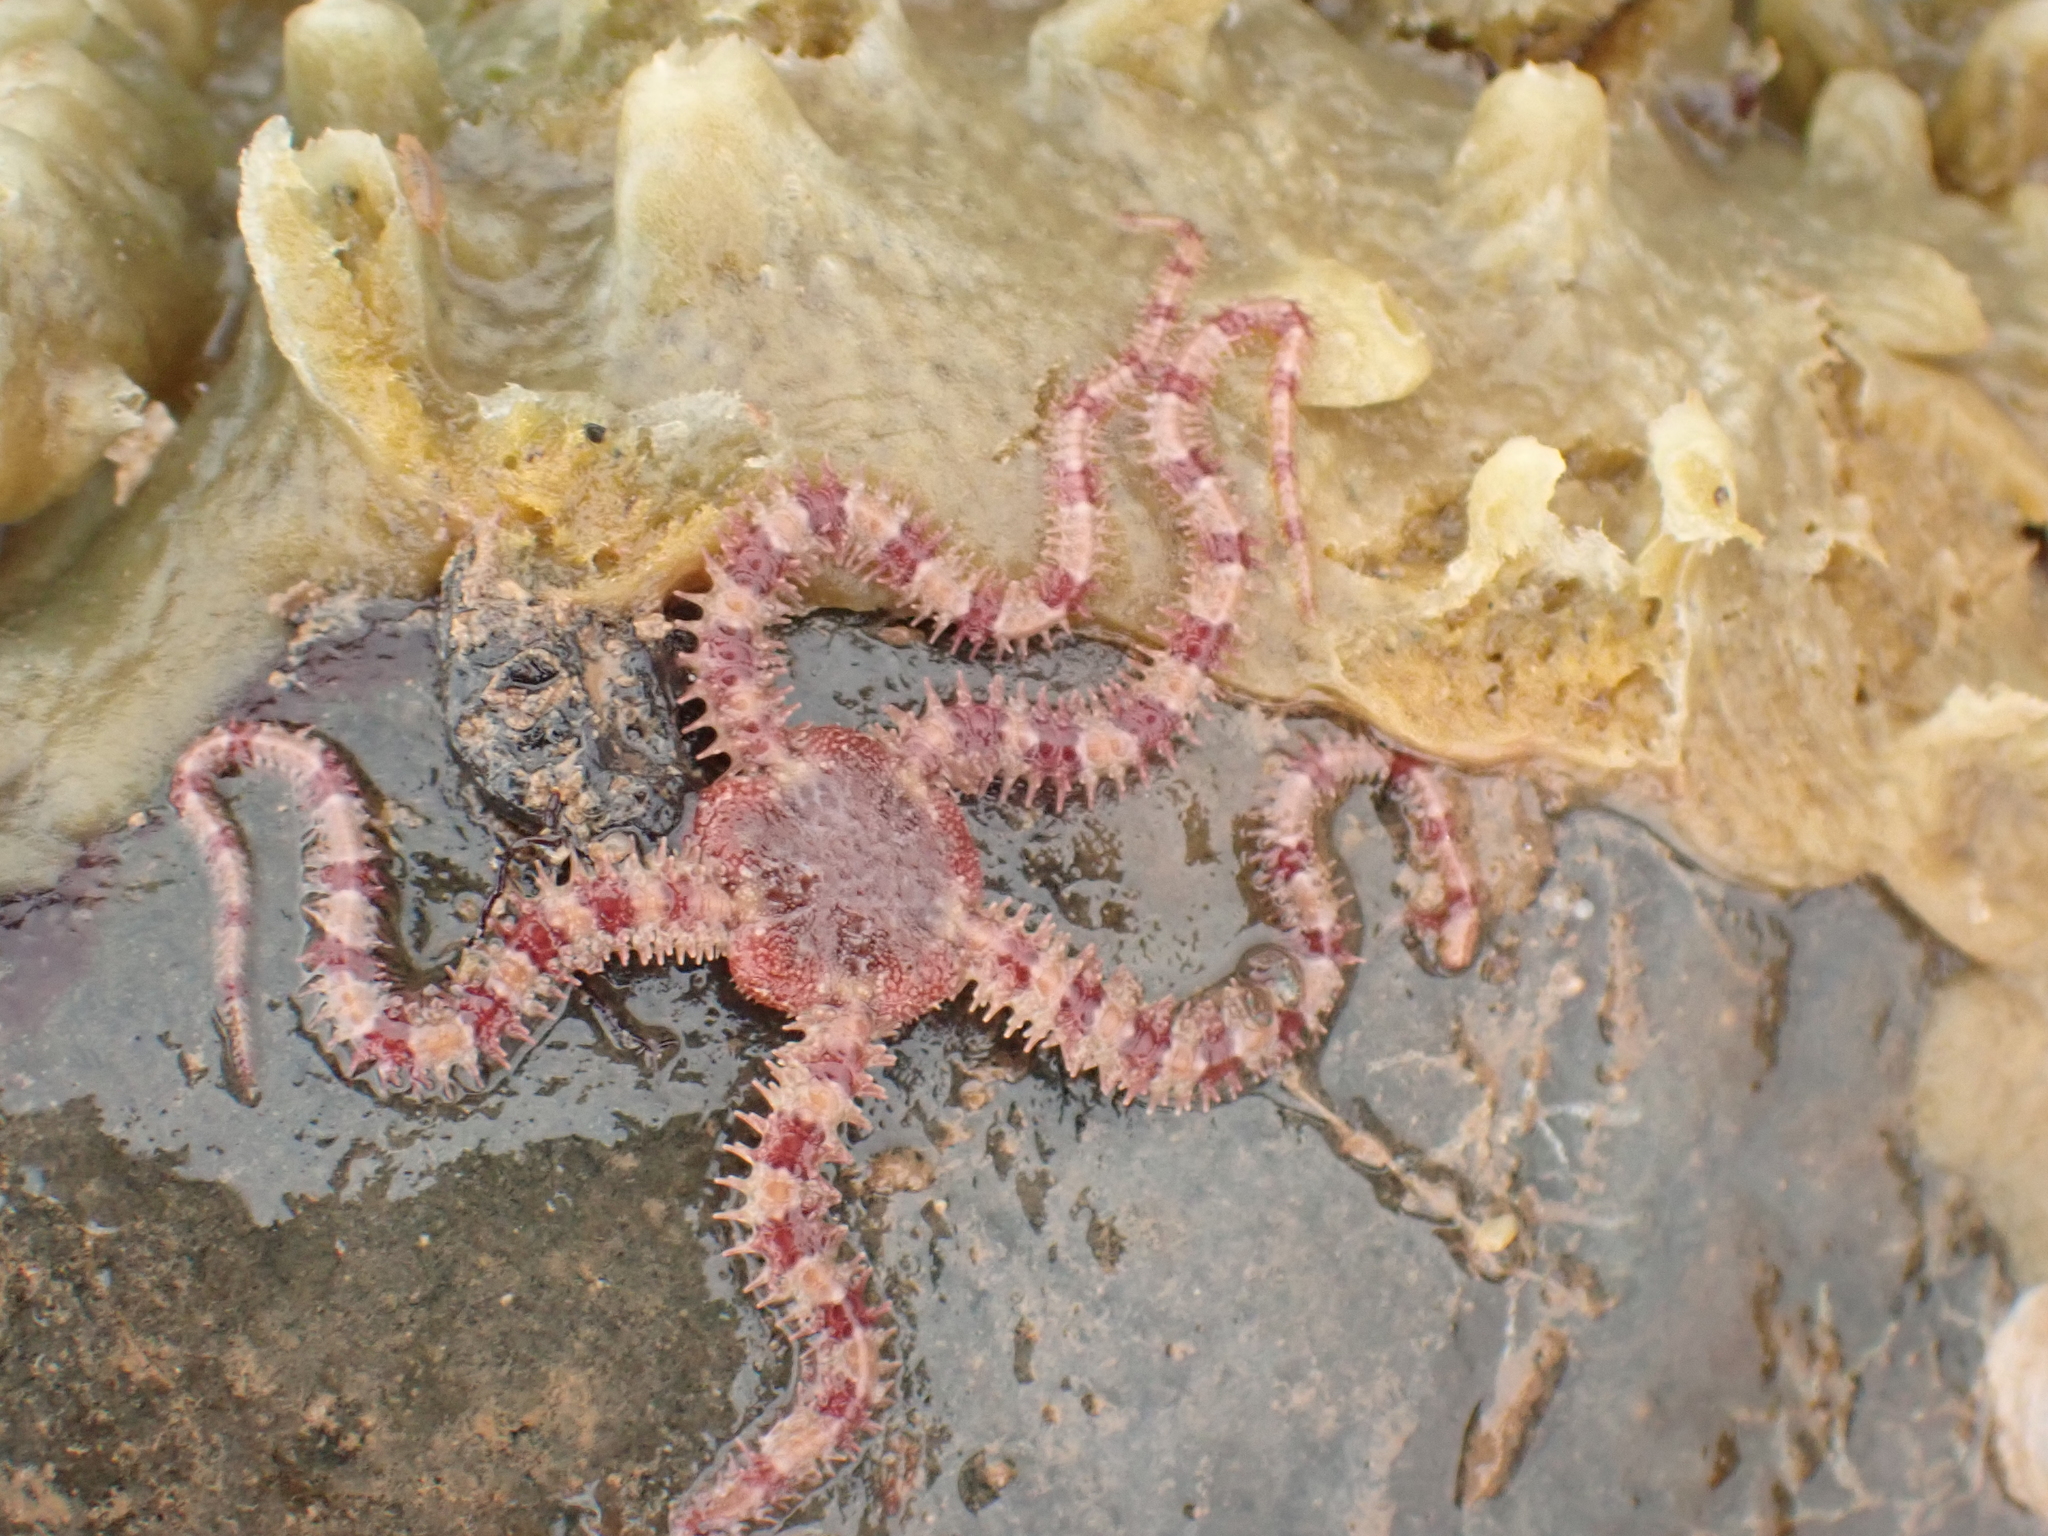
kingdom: Animalia
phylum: Echinodermata
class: Ophiuroidea
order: Amphilepidida
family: Ophiopholidae
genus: Ophiopholis
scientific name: Ophiopholis aculeata
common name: Crevice brittlestar
